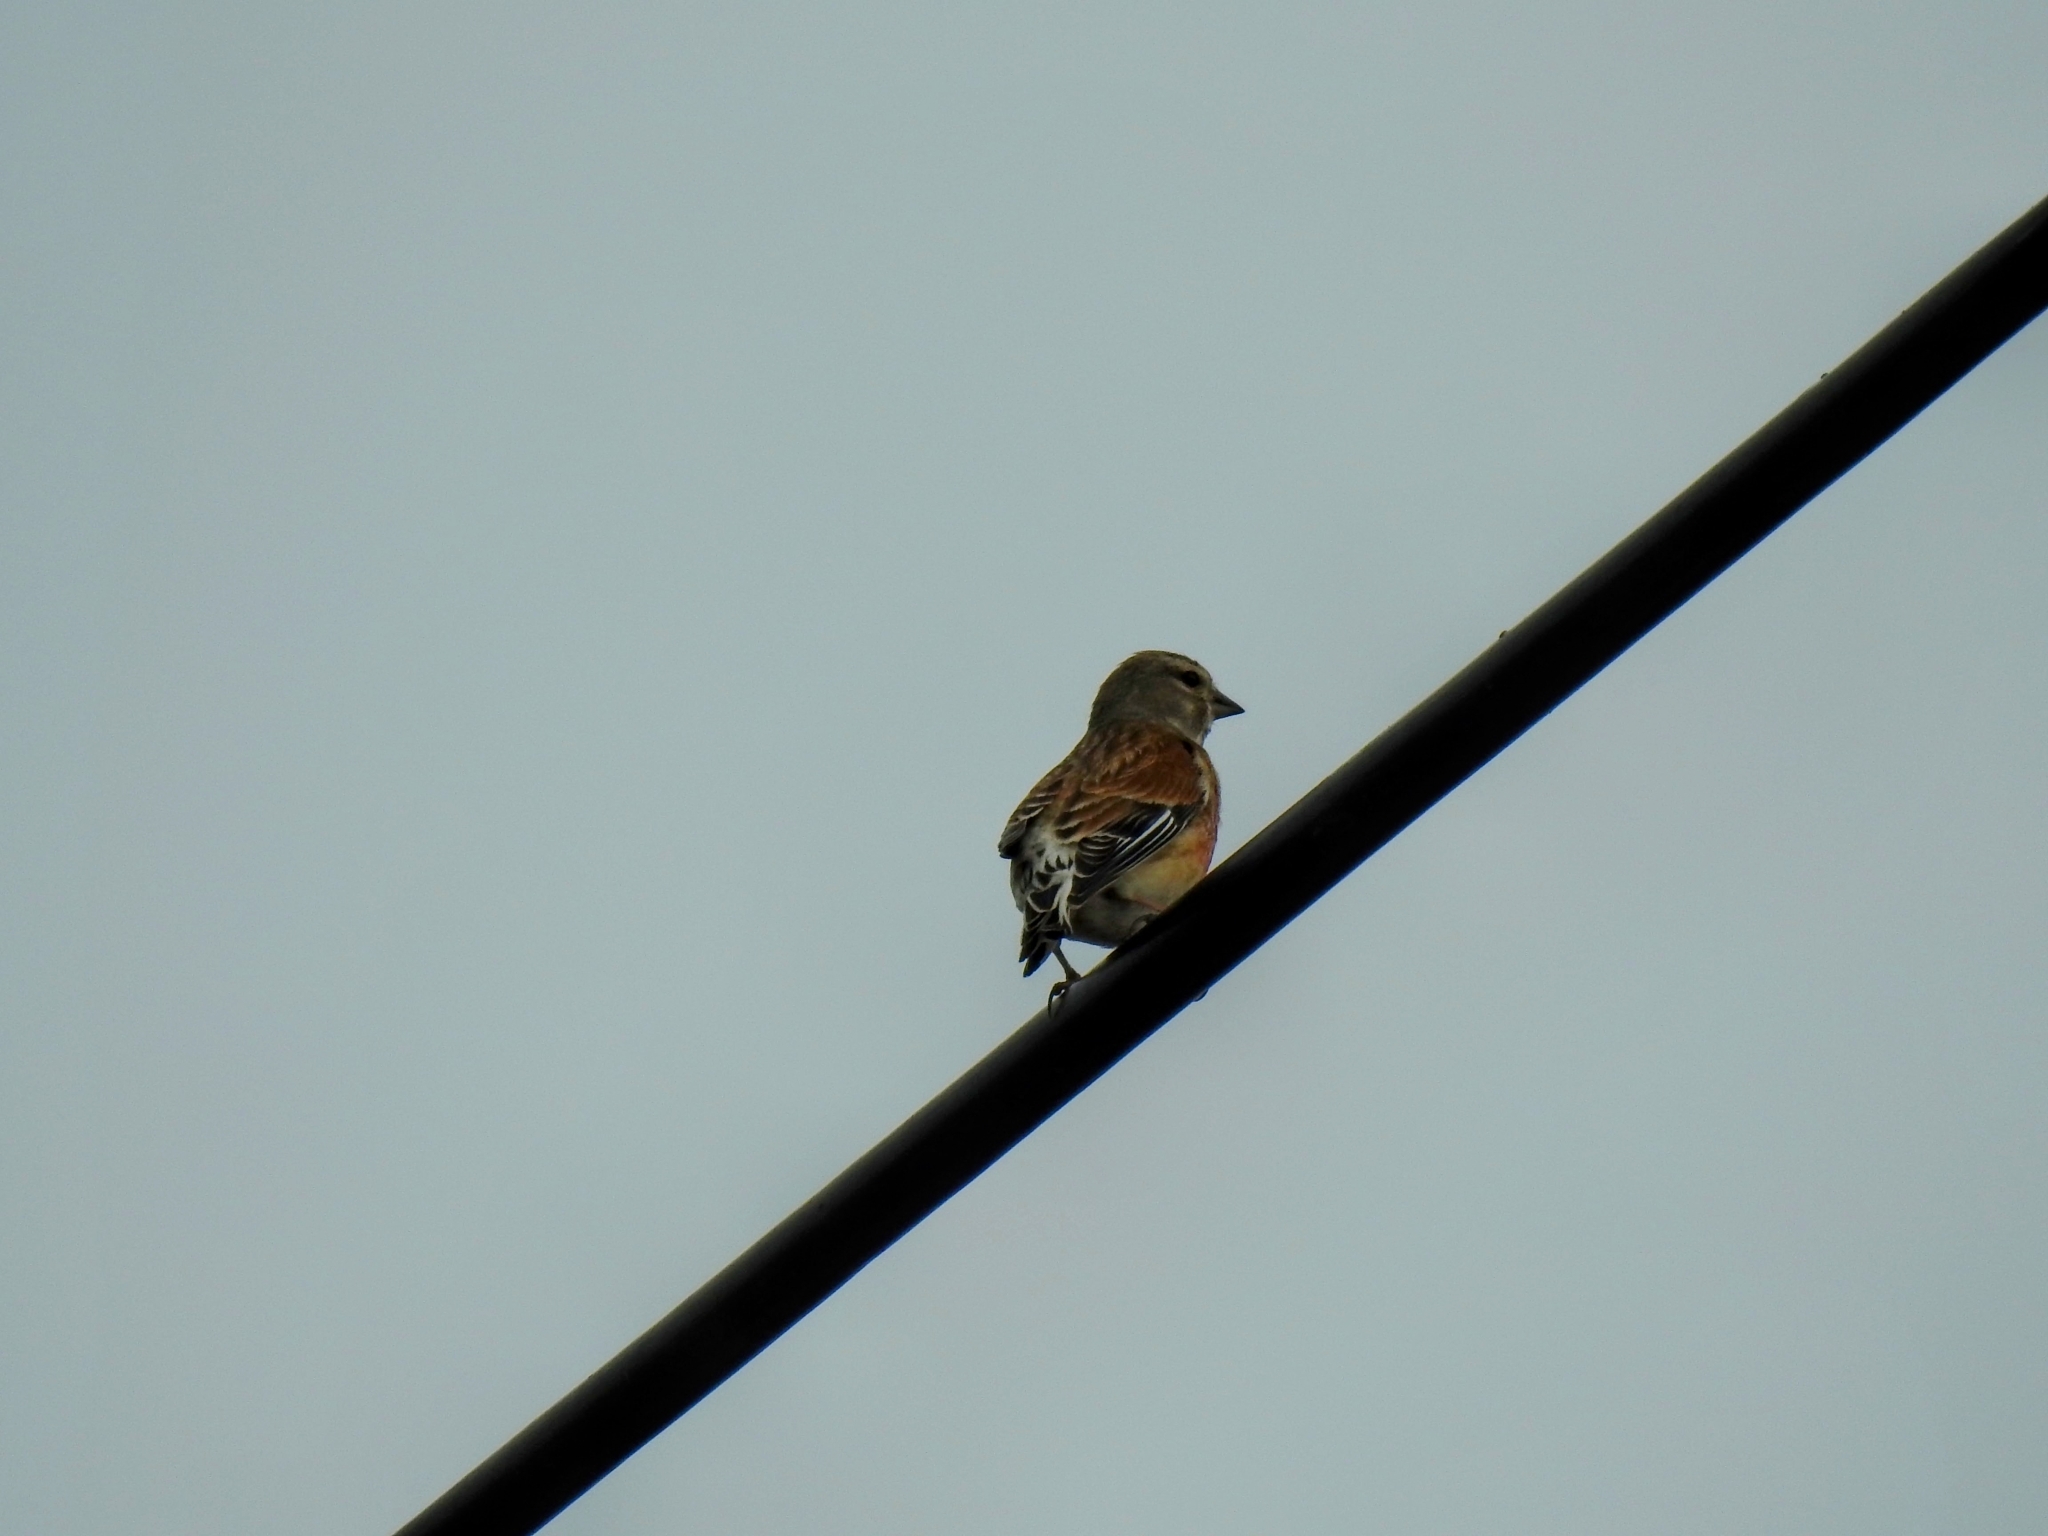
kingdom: Animalia
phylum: Chordata
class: Aves
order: Passeriformes
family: Fringillidae
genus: Linaria
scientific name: Linaria cannabina
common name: Common linnet
